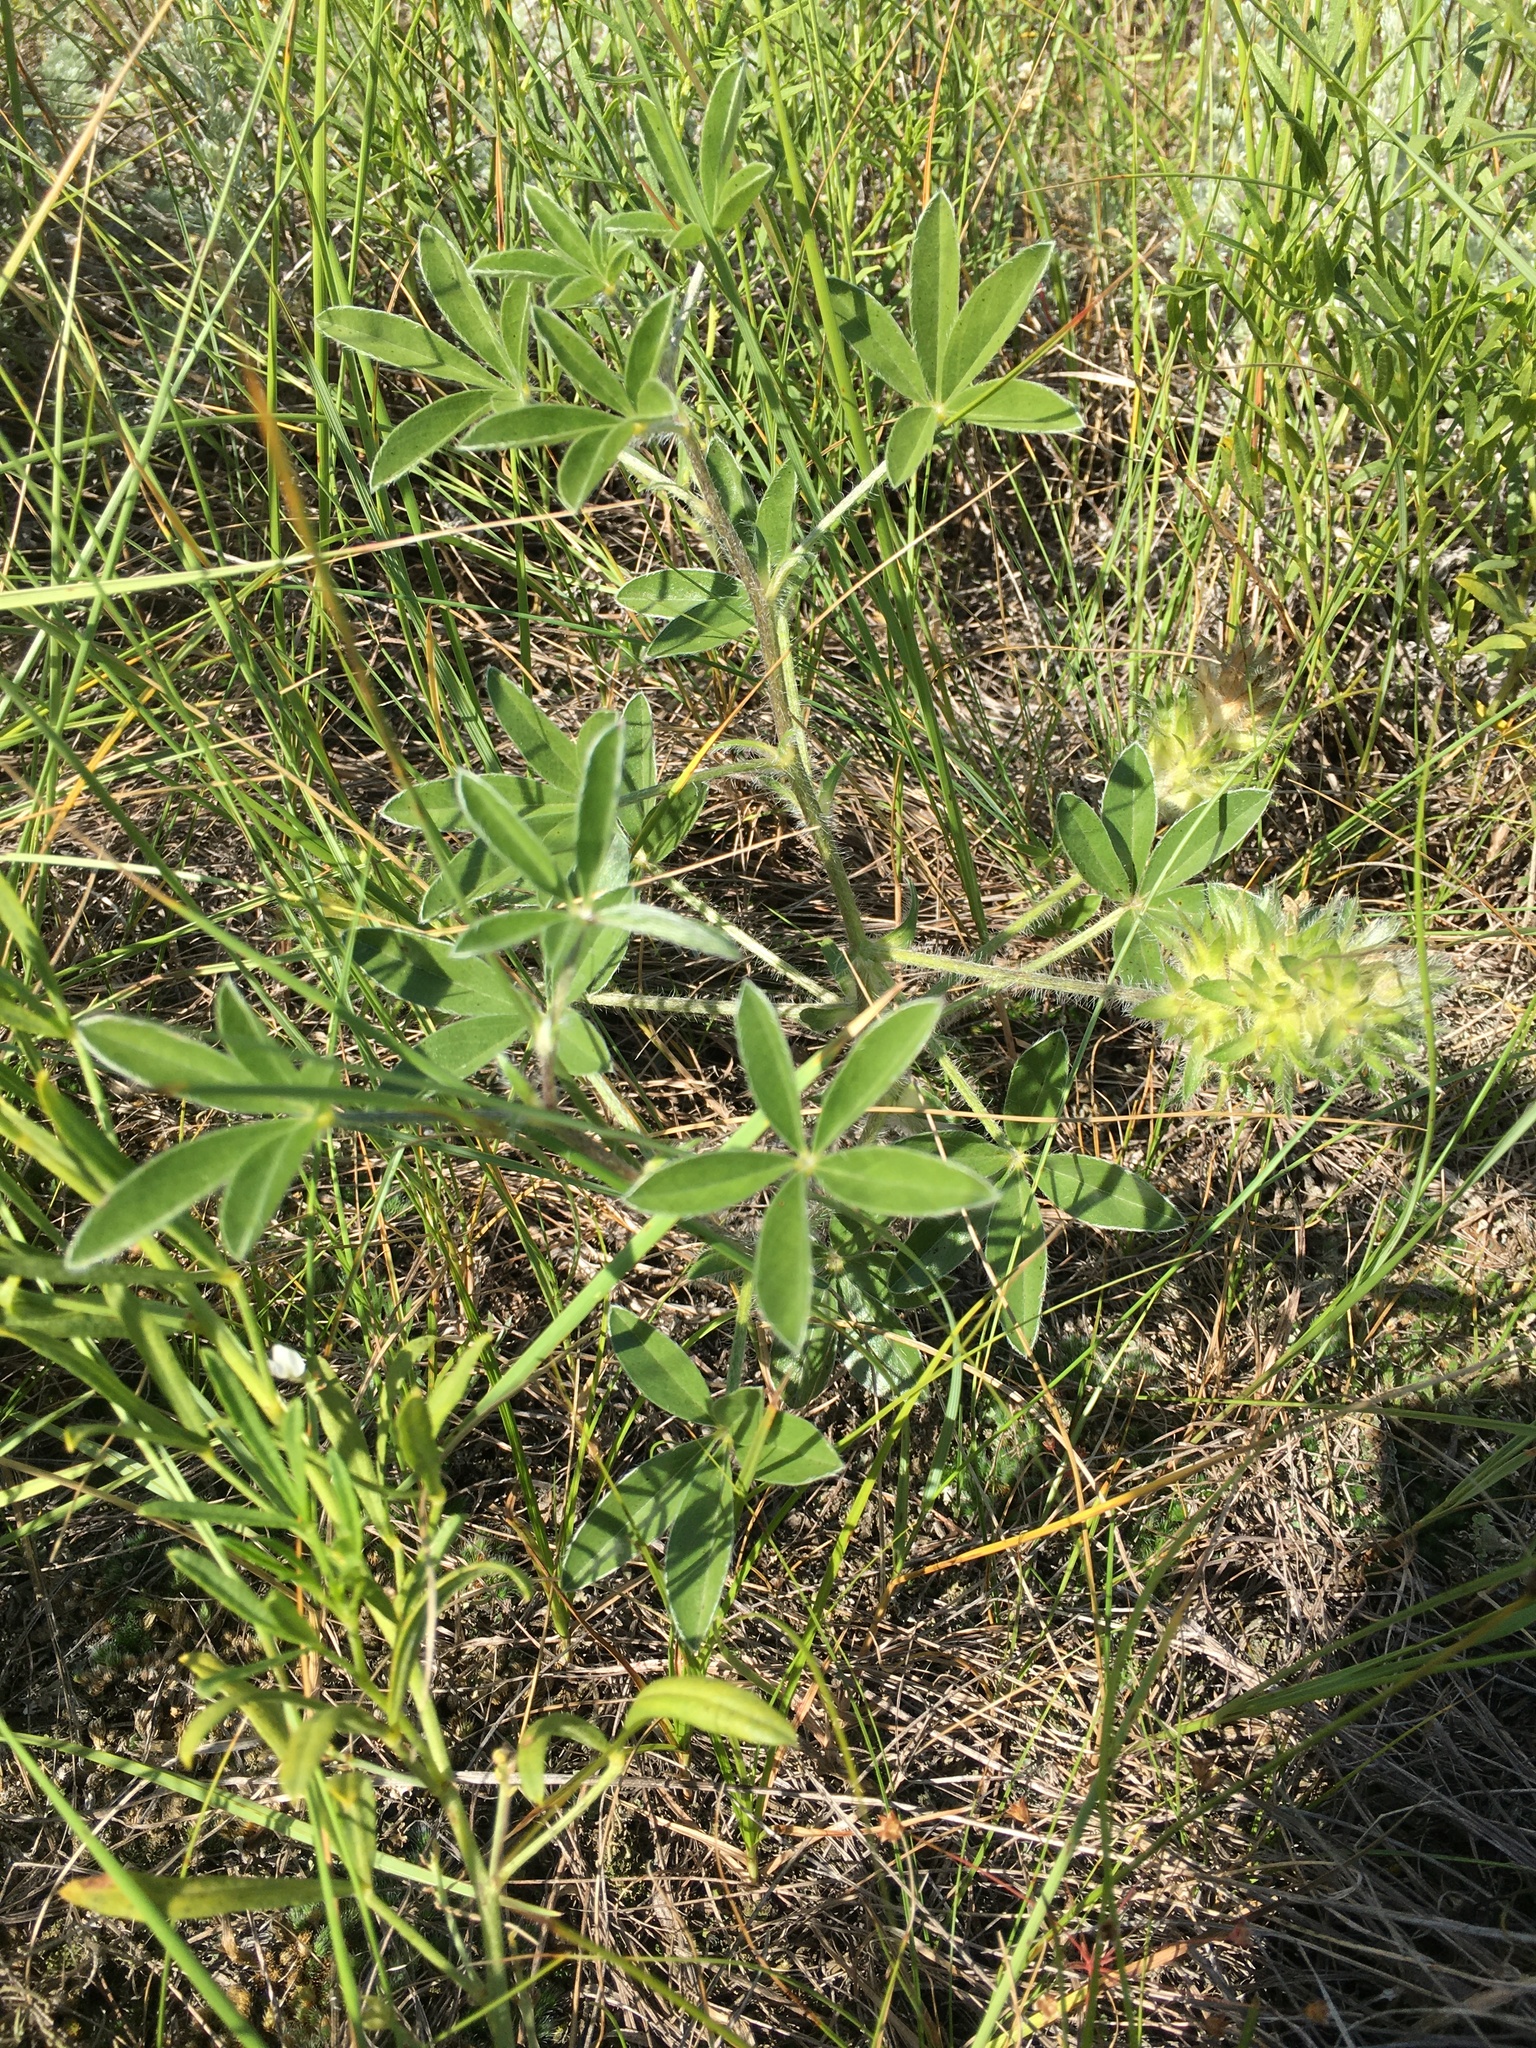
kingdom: Plantae
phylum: Tracheophyta
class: Magnoliopsida
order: Fabales
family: Fabaceae
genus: Pediomelum
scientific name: Pediomelum esculentum
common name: Indian-turnip
